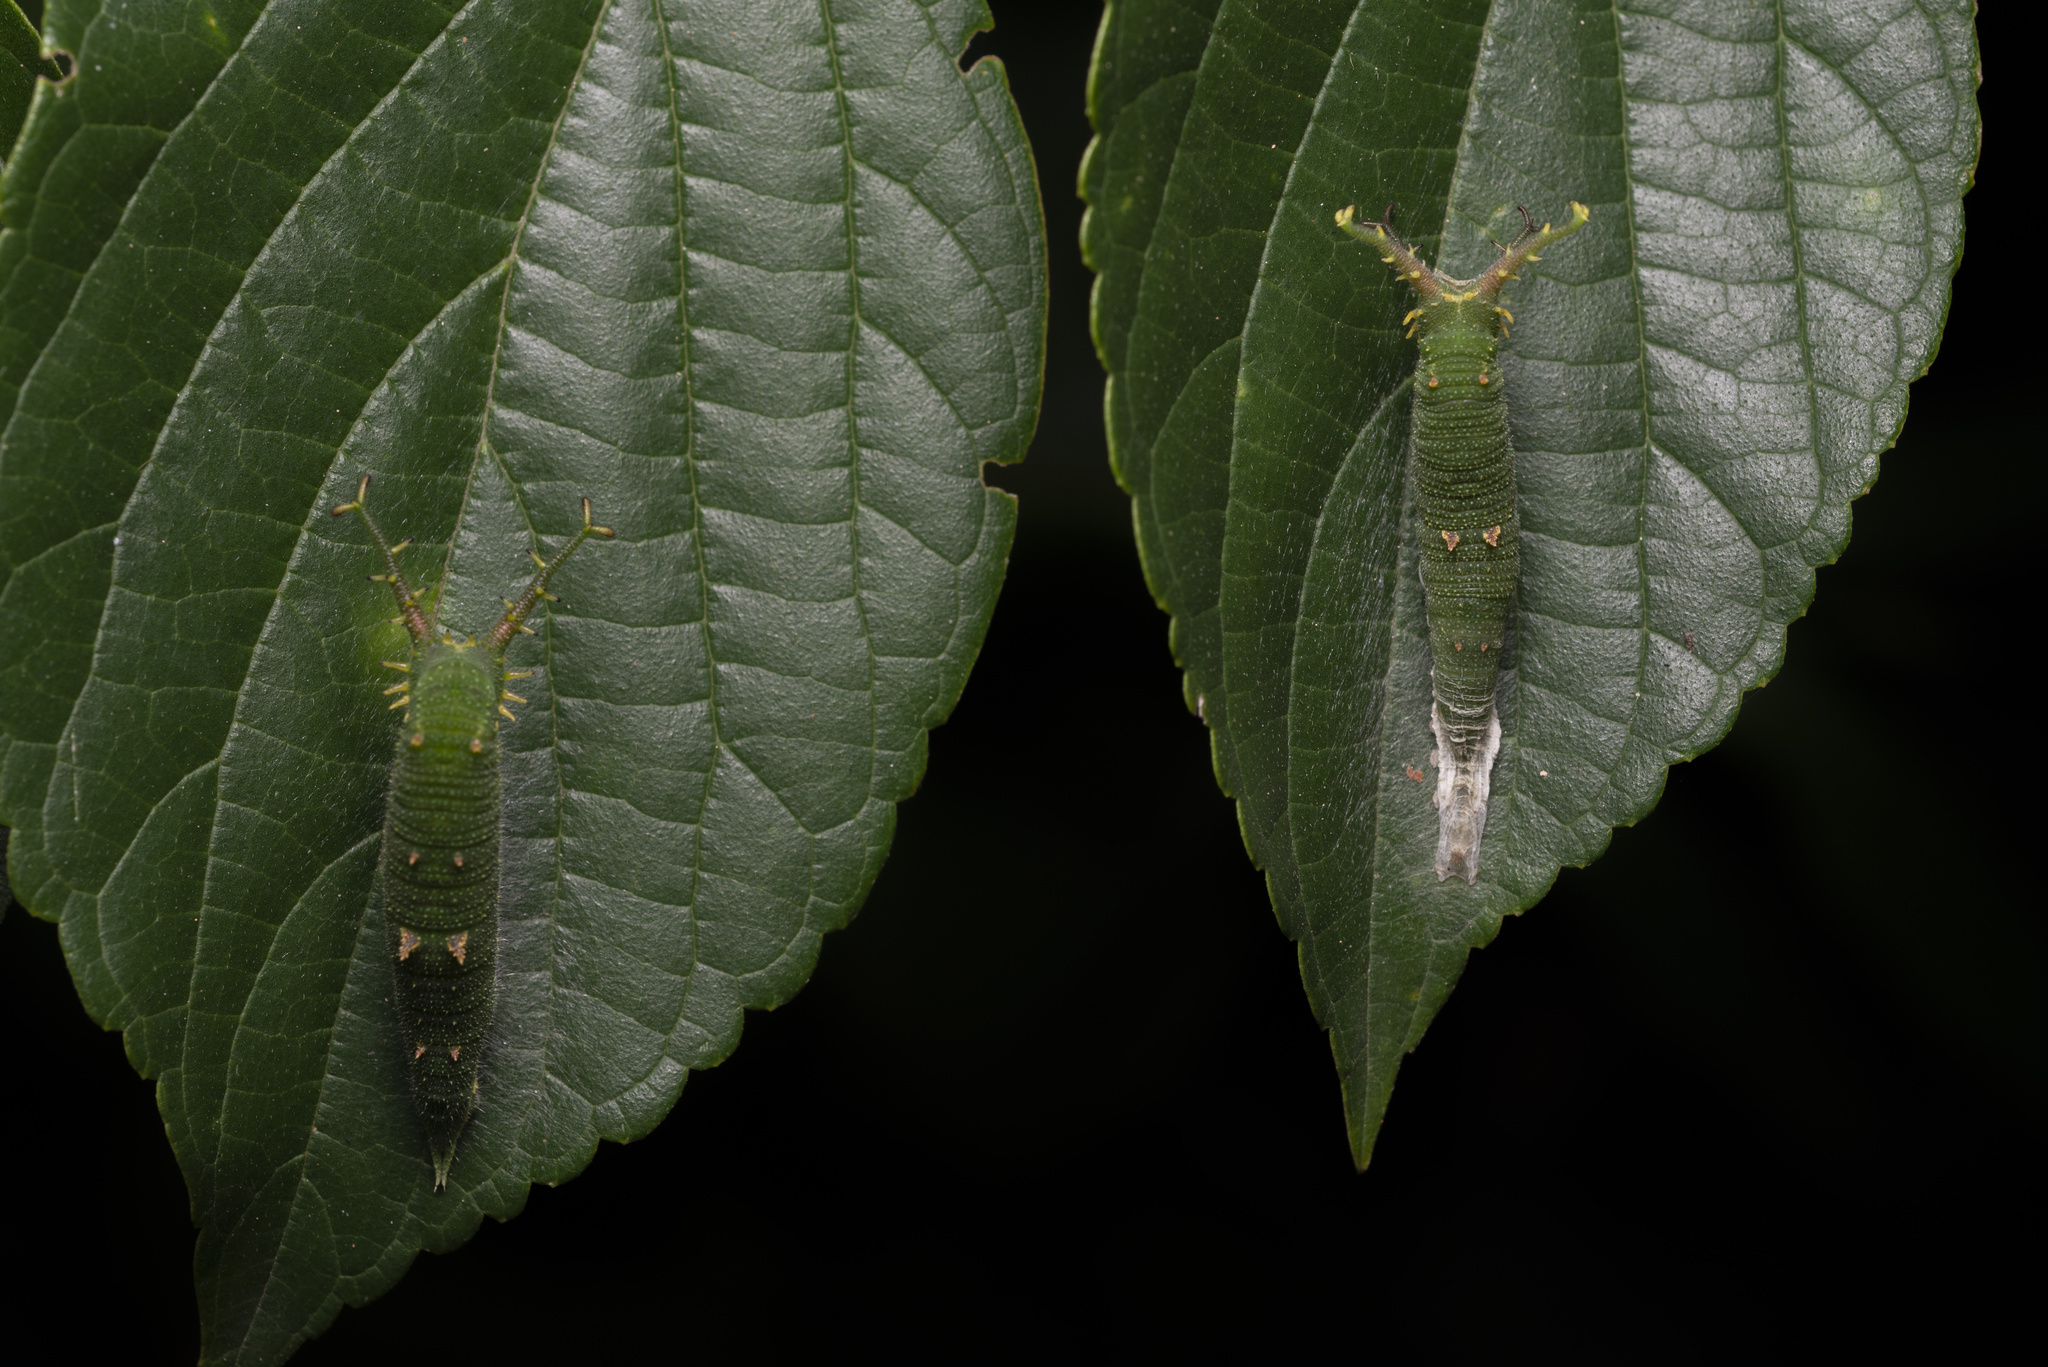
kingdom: Animalia
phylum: Arthropoda
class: Insecta
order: Lepidoptera
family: Nymphalidae
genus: Hestina
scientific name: Hestina assimilis
